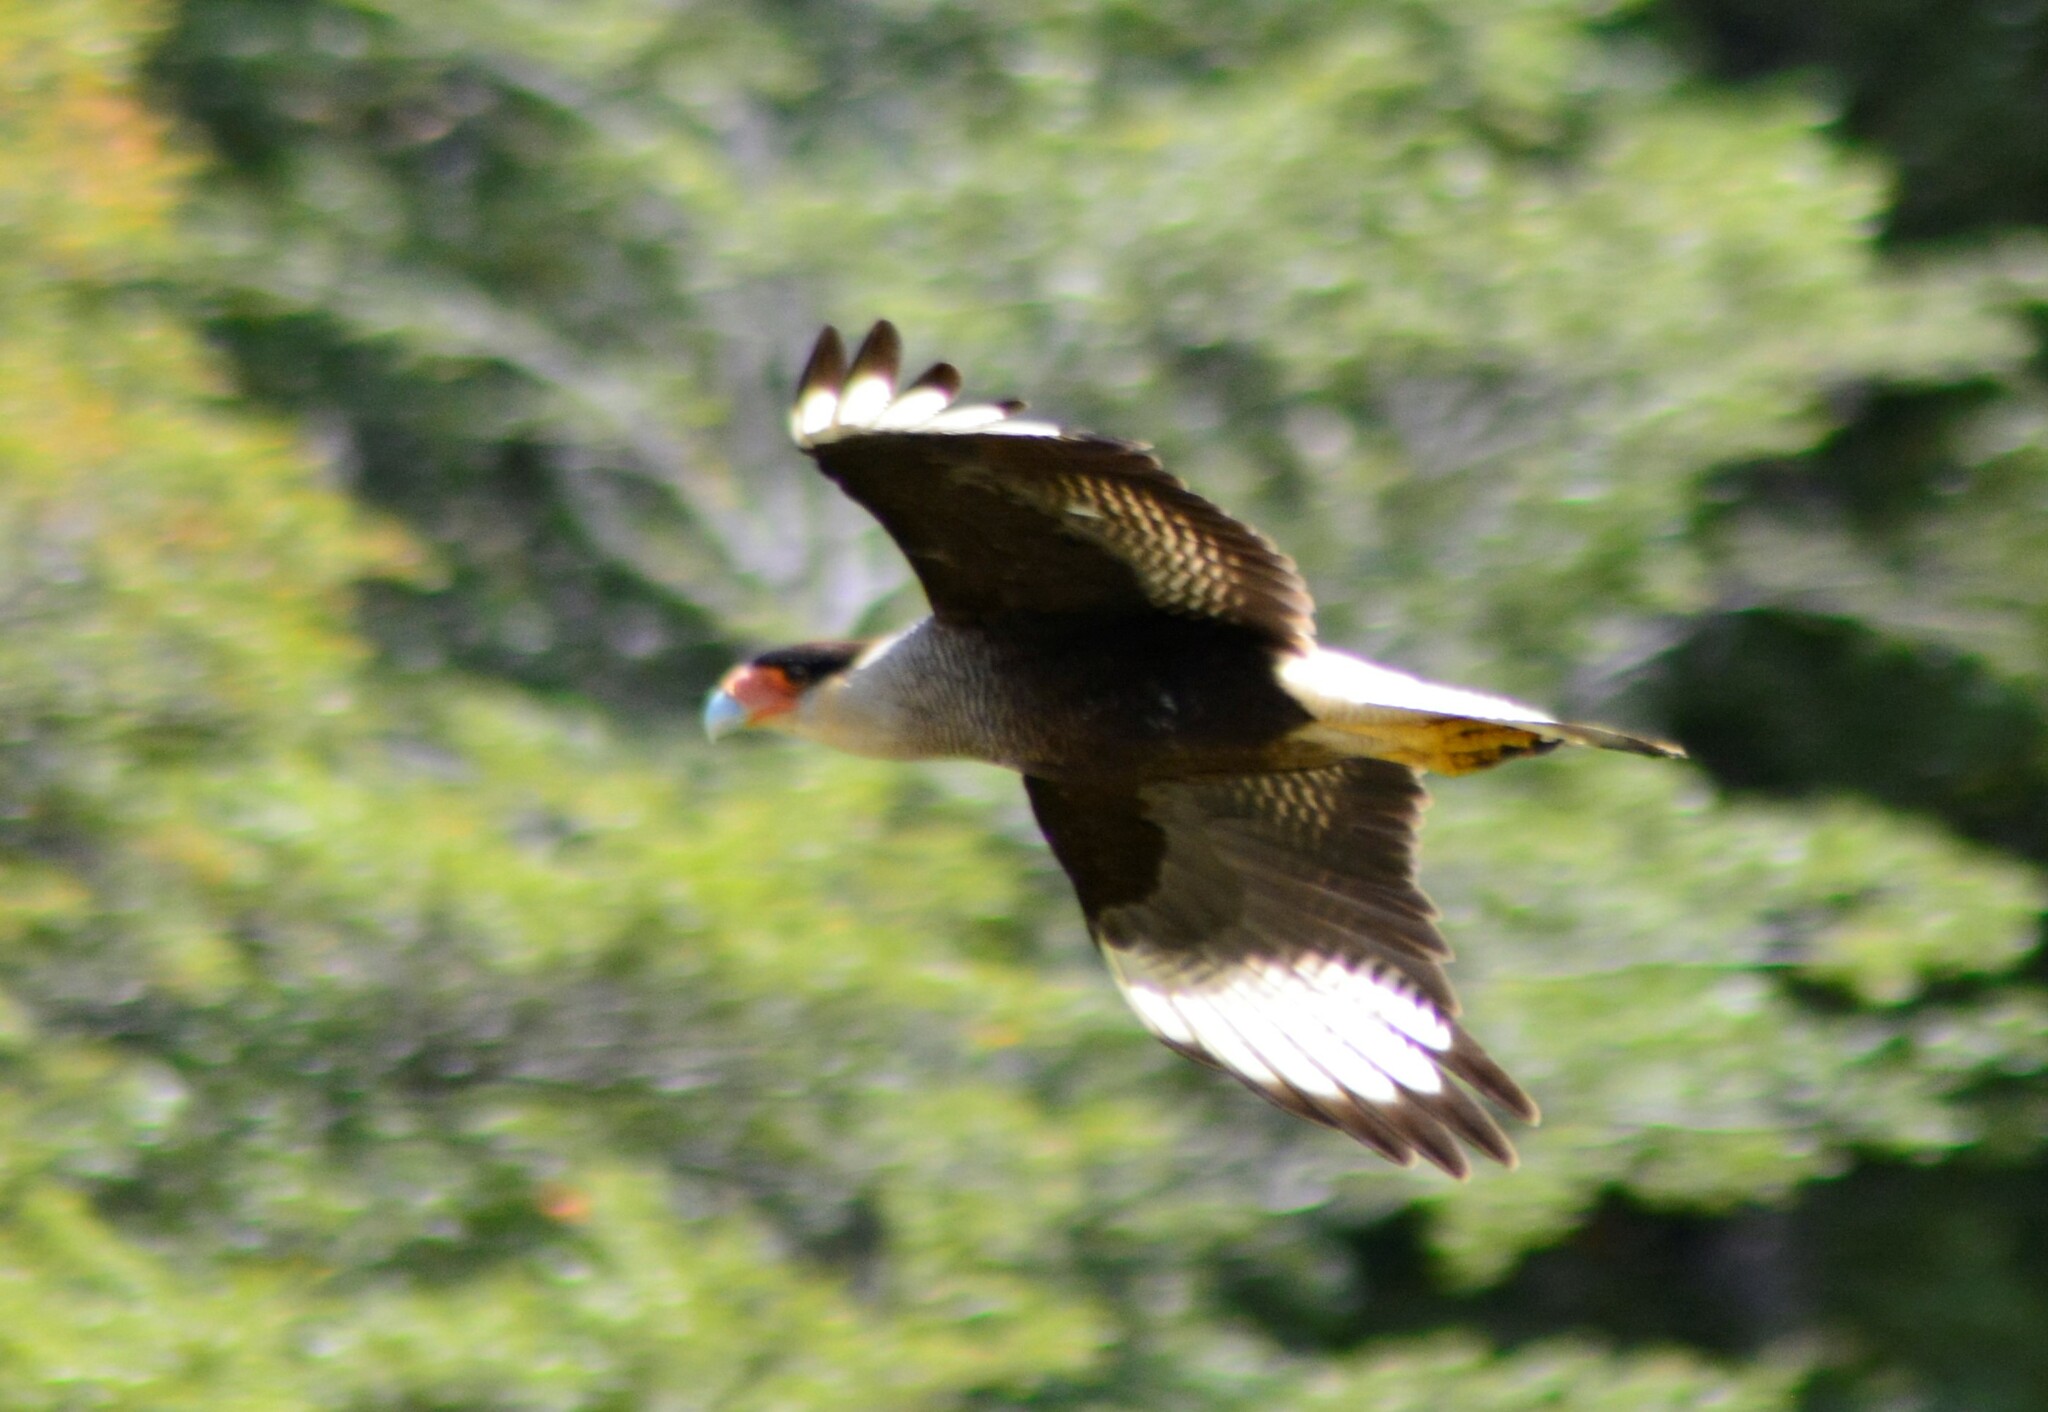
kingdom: Animalia
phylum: Chordata
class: Aves
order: Falconiformes
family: Falconidae
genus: Caracara
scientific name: Caracara plancus
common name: Southern caracara
